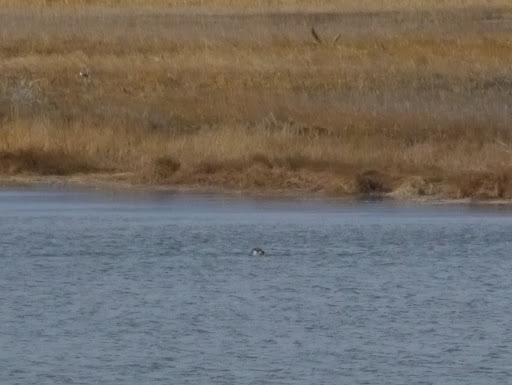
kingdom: Animalia
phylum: Chordata
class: Mammalia
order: Carnivora
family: Phocidae
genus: Phoca
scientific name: Phoca vitulina
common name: Harbor seal
